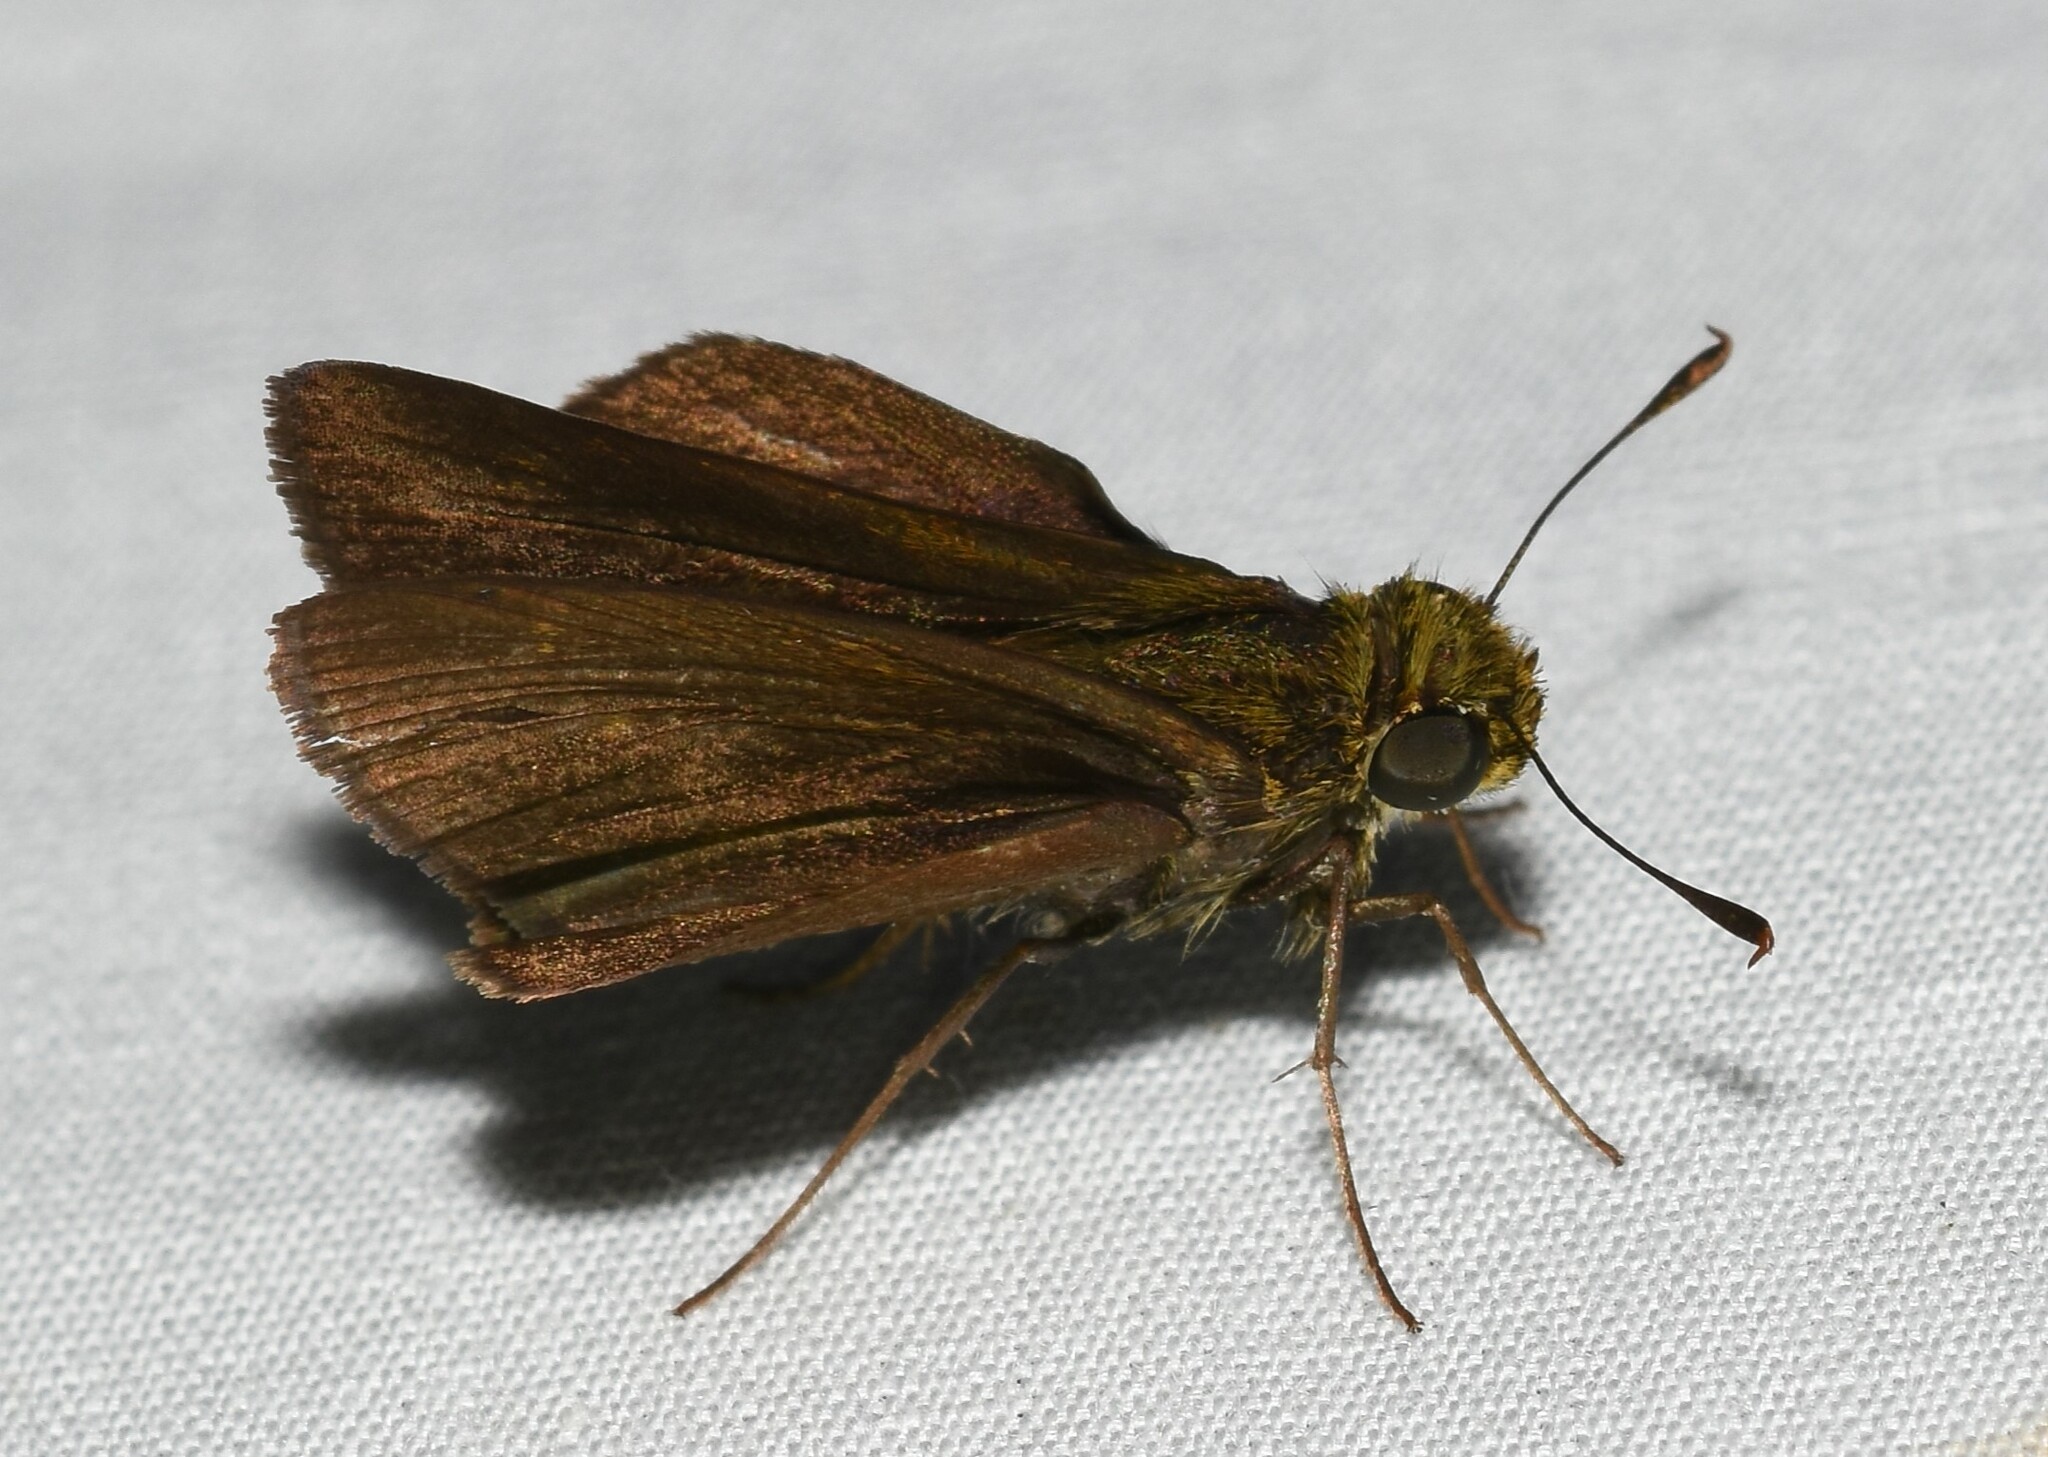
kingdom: Animalia
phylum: Arthropoda
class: Insecta
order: Lepidoptera
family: Hesperiidae
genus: Euphyes
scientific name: Euphyes vestris
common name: Dun skipper
